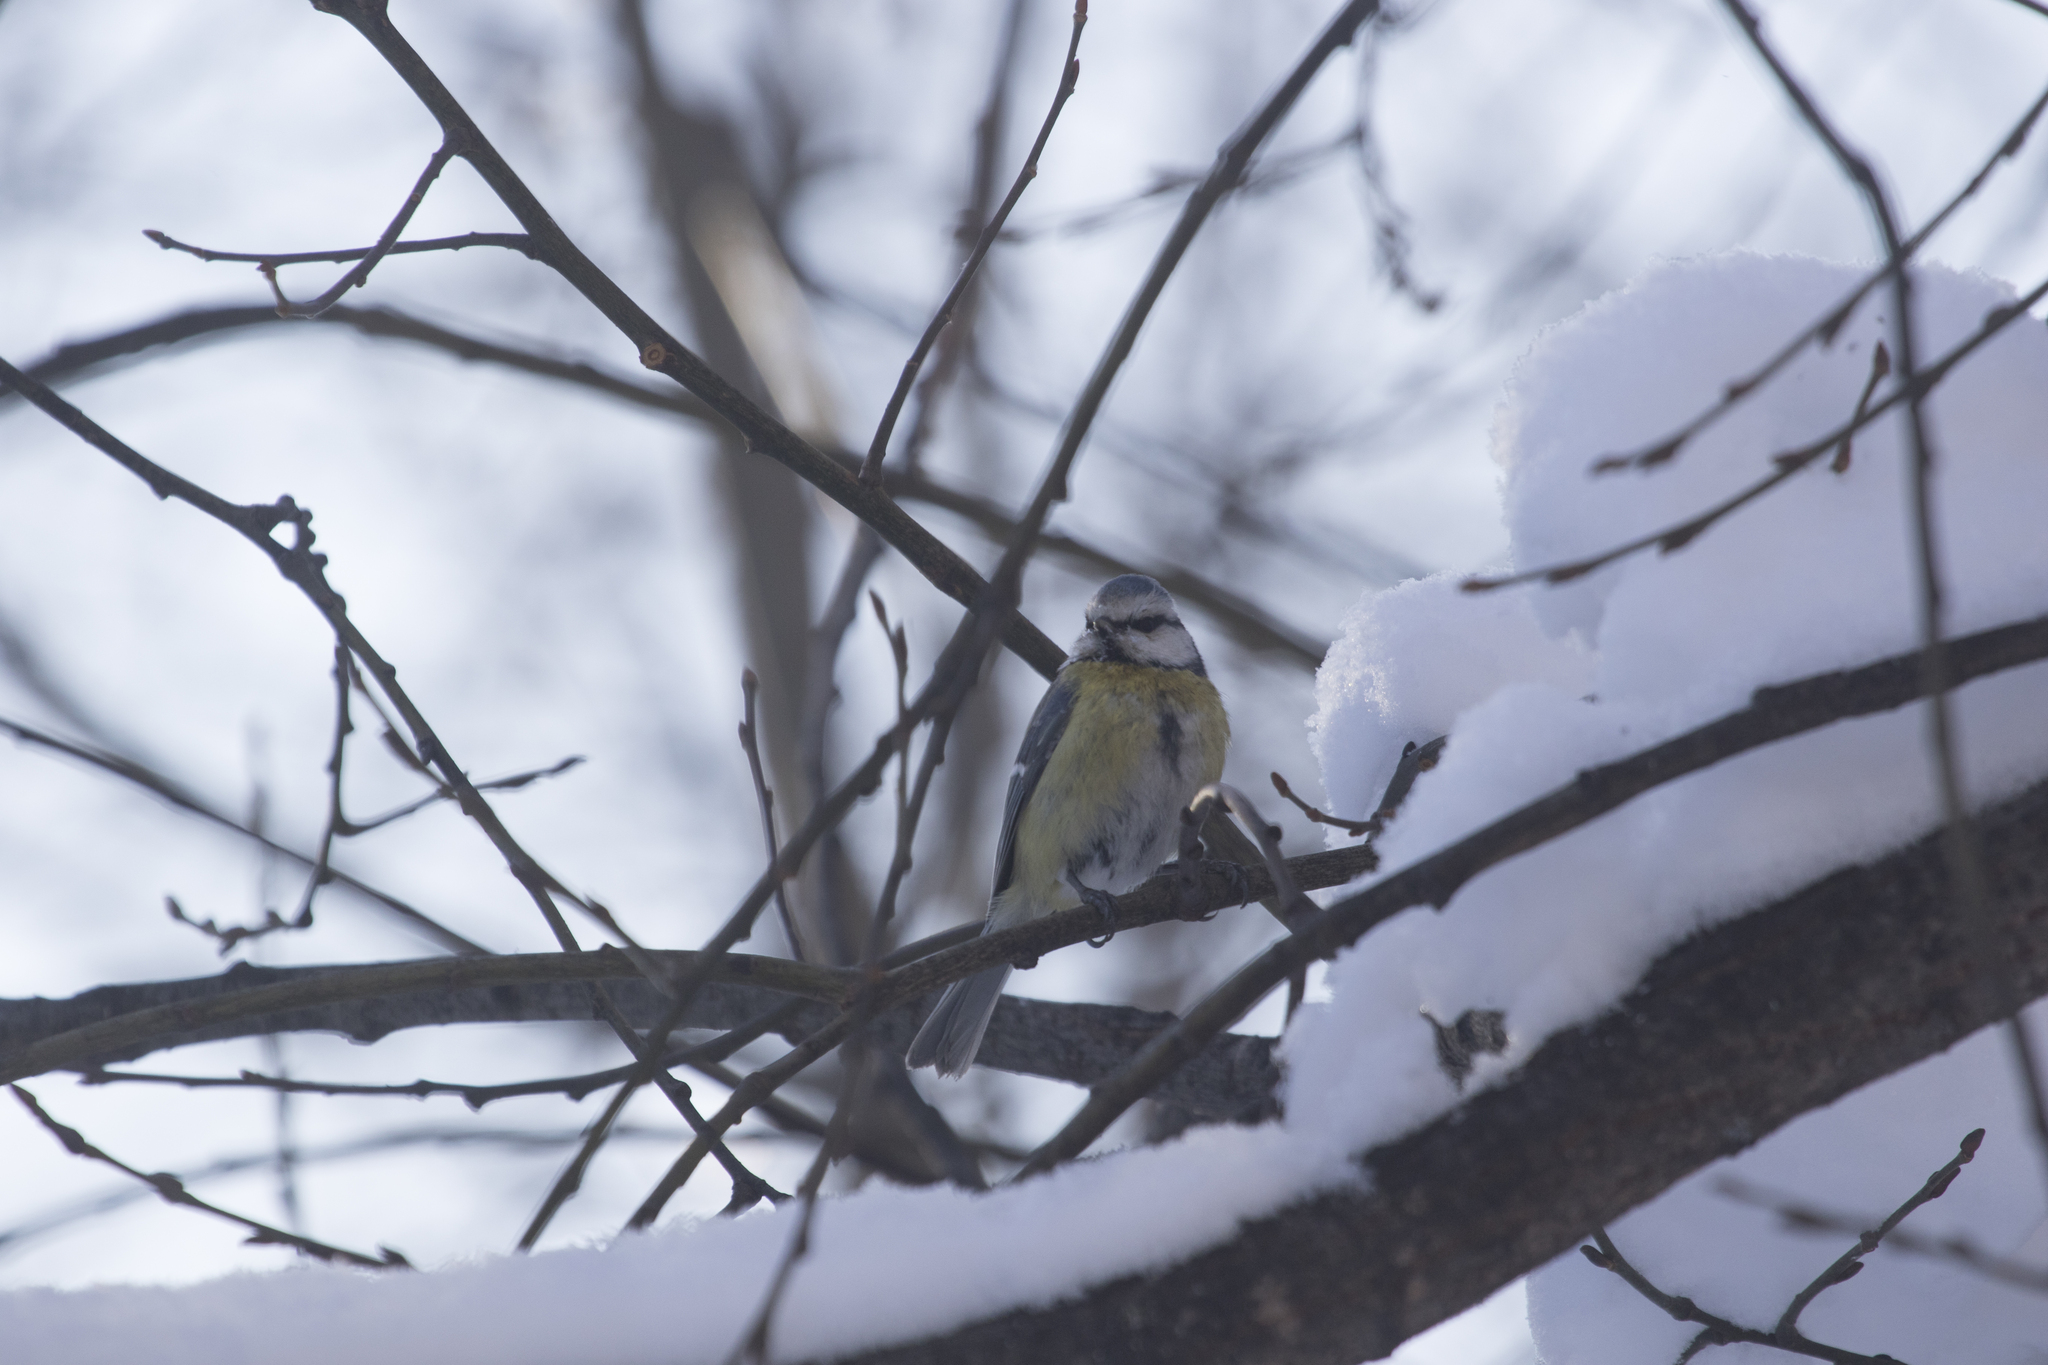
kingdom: Animalia
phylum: Chordata
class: Aves
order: Passeriformes
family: Paridae
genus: Cyanistes
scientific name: Cyanistes caeruleus
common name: Eurasian blue tit
